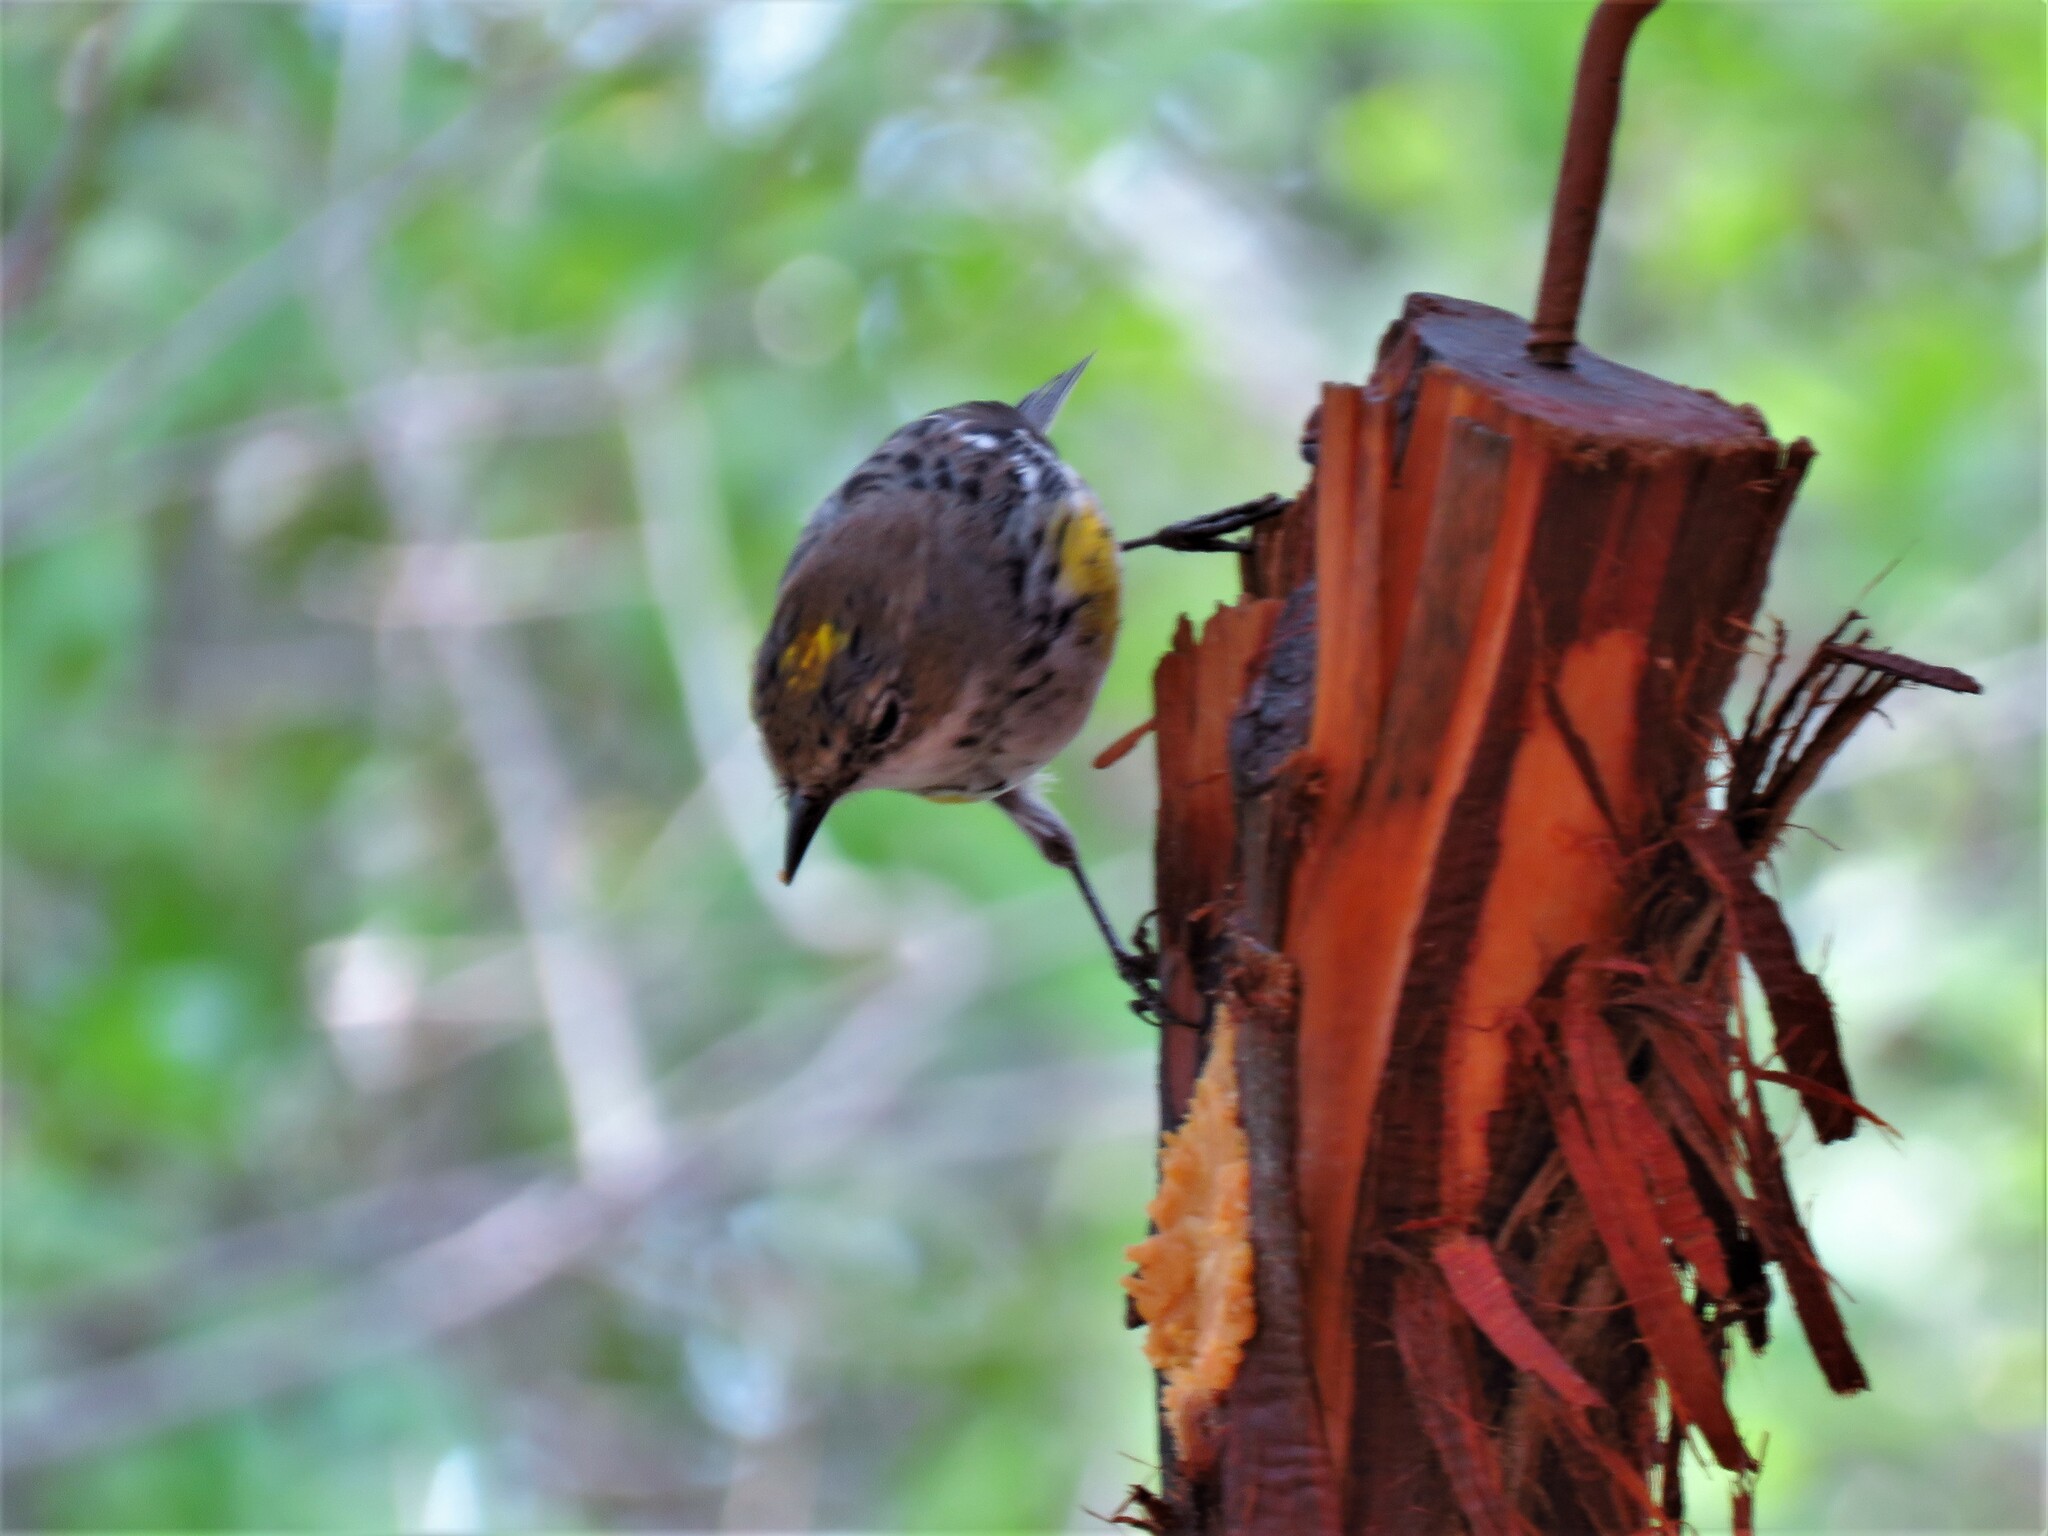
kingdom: Animalia
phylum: Chordata
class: Aves
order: Passeriformes
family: Parulidae
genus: Setophaga
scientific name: Setophaga coronata
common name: Myrtle warbler
